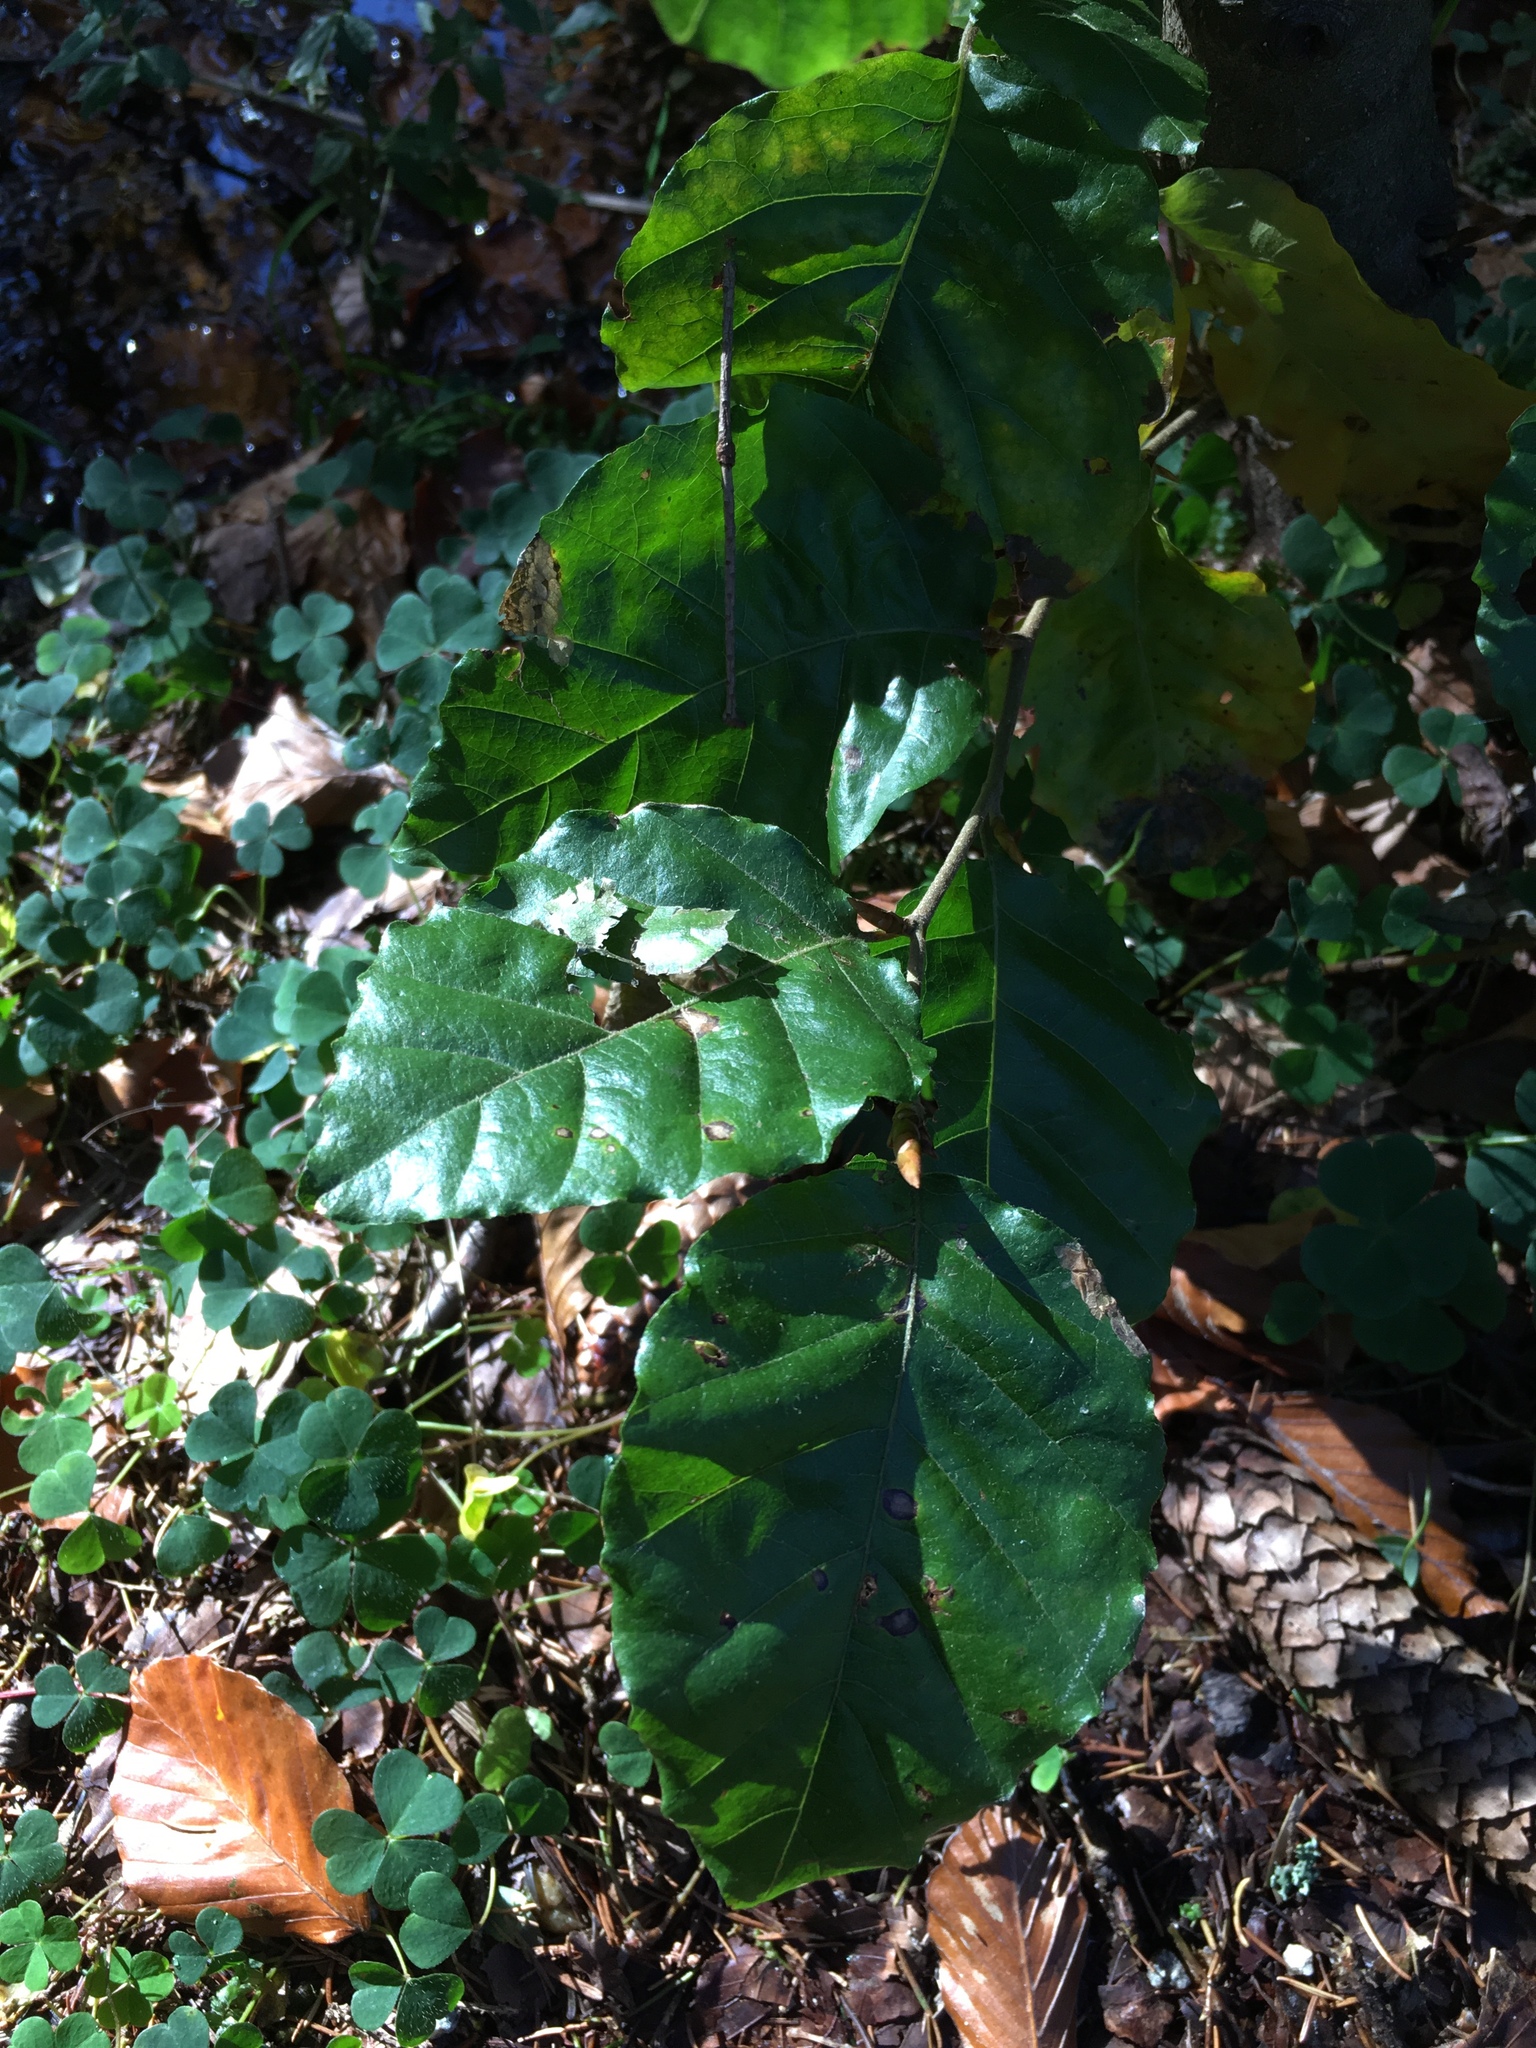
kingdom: Plantae
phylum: Tracheophyta
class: Magnoliopsida
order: Fagales
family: Fagaceae
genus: Fagus
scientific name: Fagus sylvatica
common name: Beech
